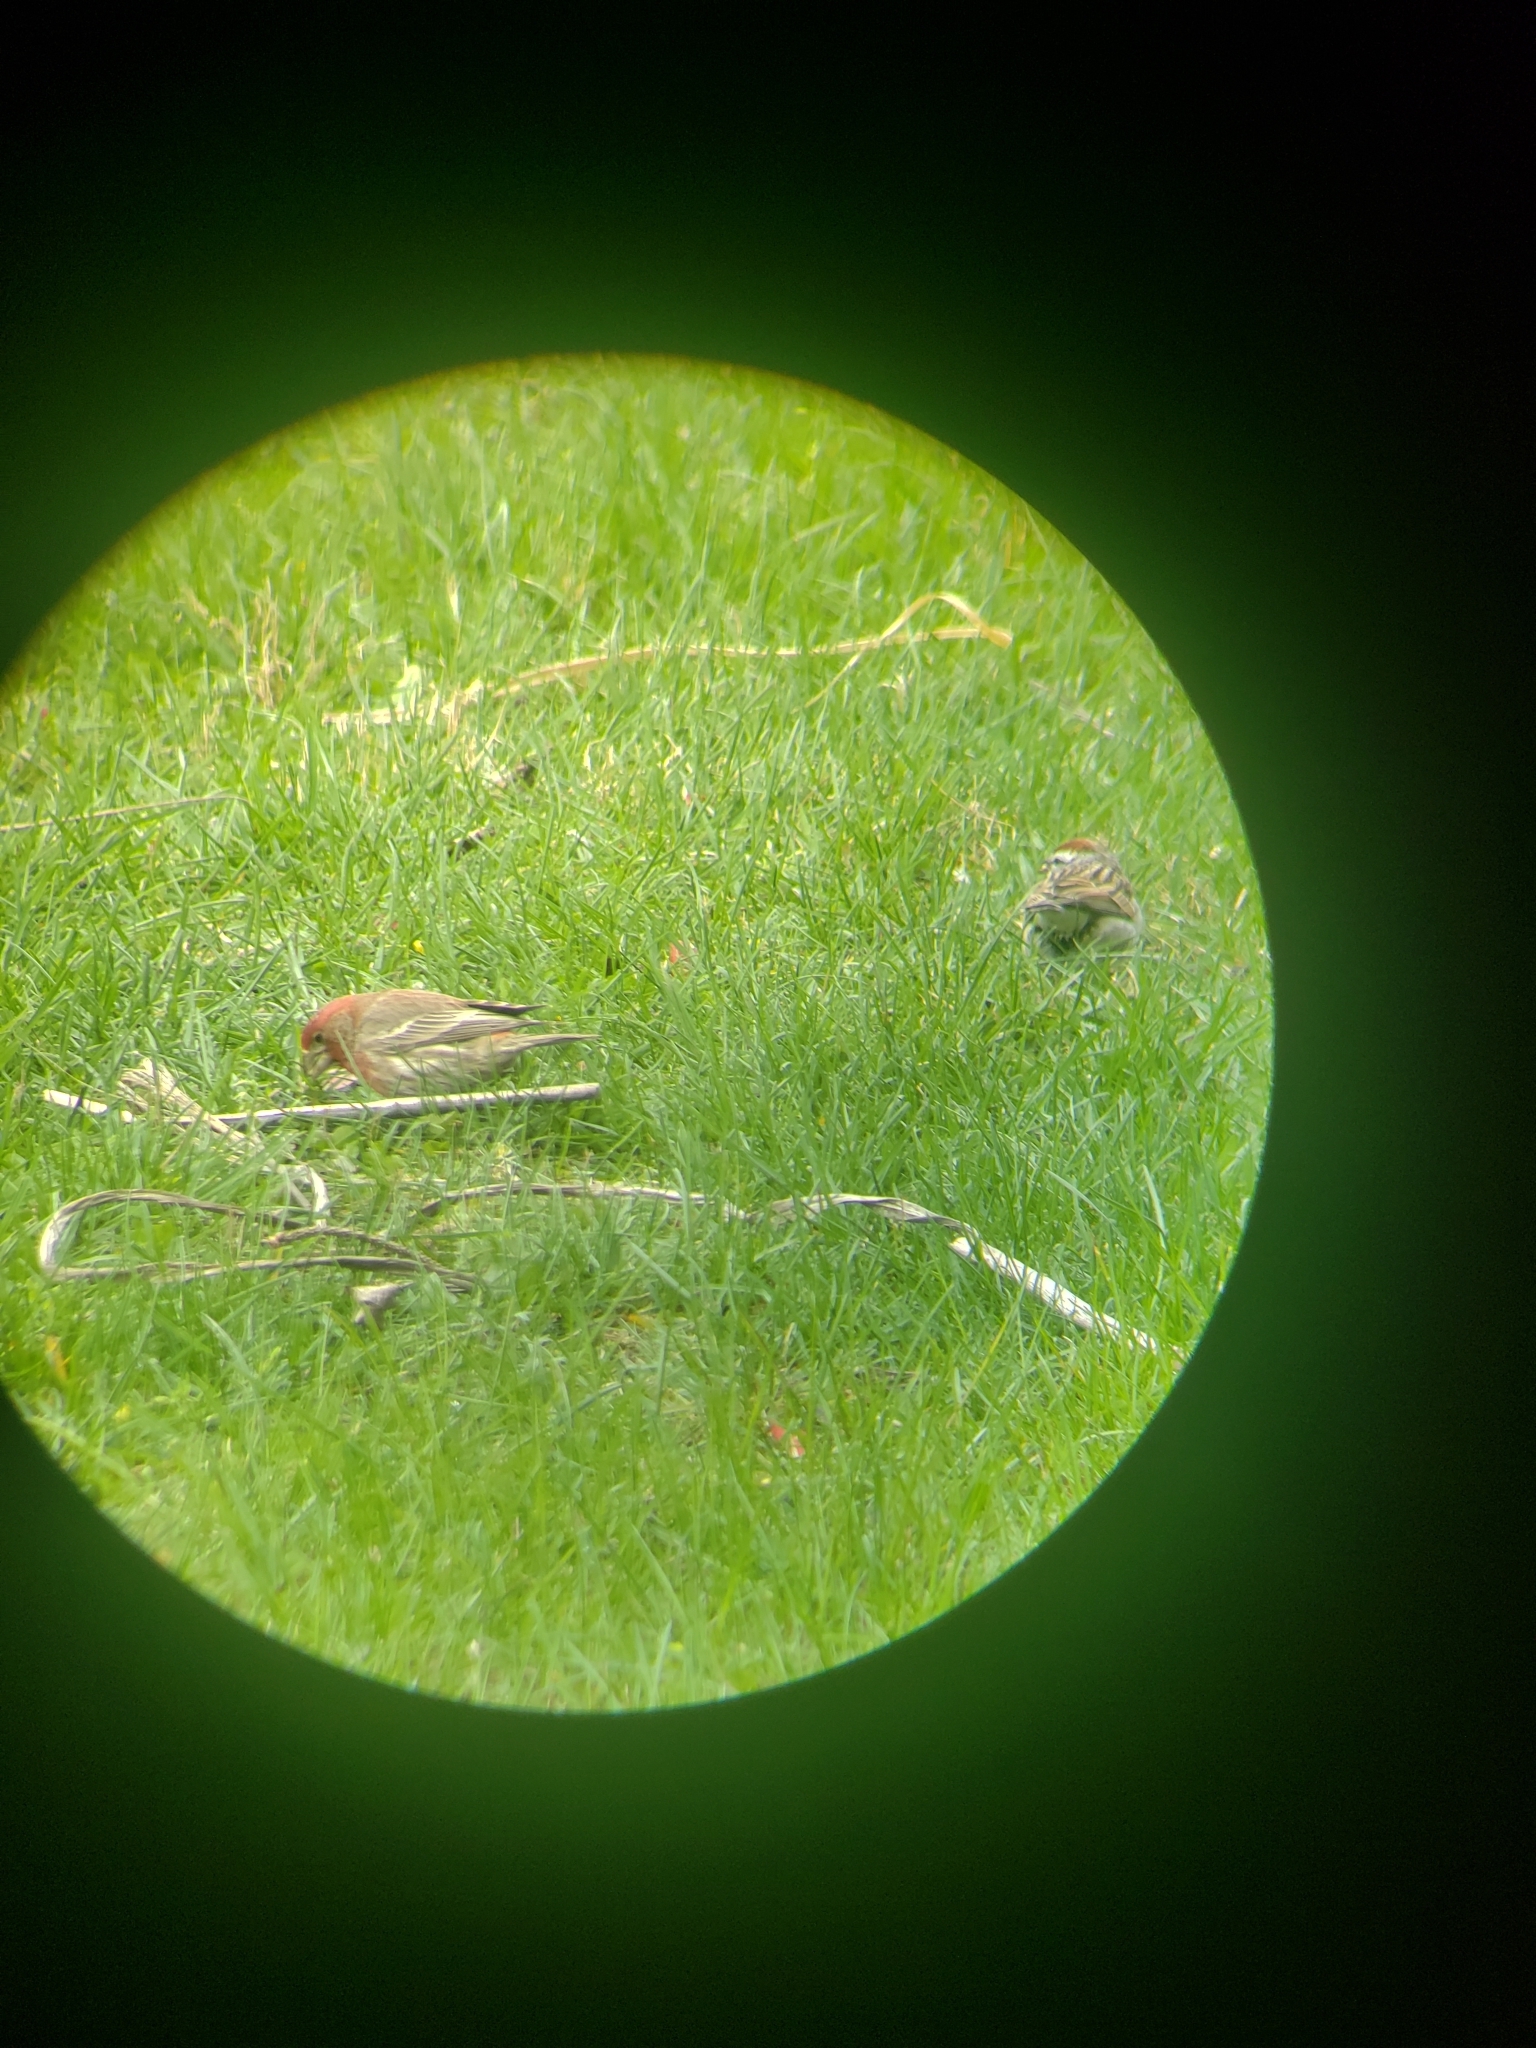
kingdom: Animalia
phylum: Chordata
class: Aves
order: Passeriformes
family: Fringillidae
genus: Haemorhous
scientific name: Haemorhous mexicanus
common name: House finch
